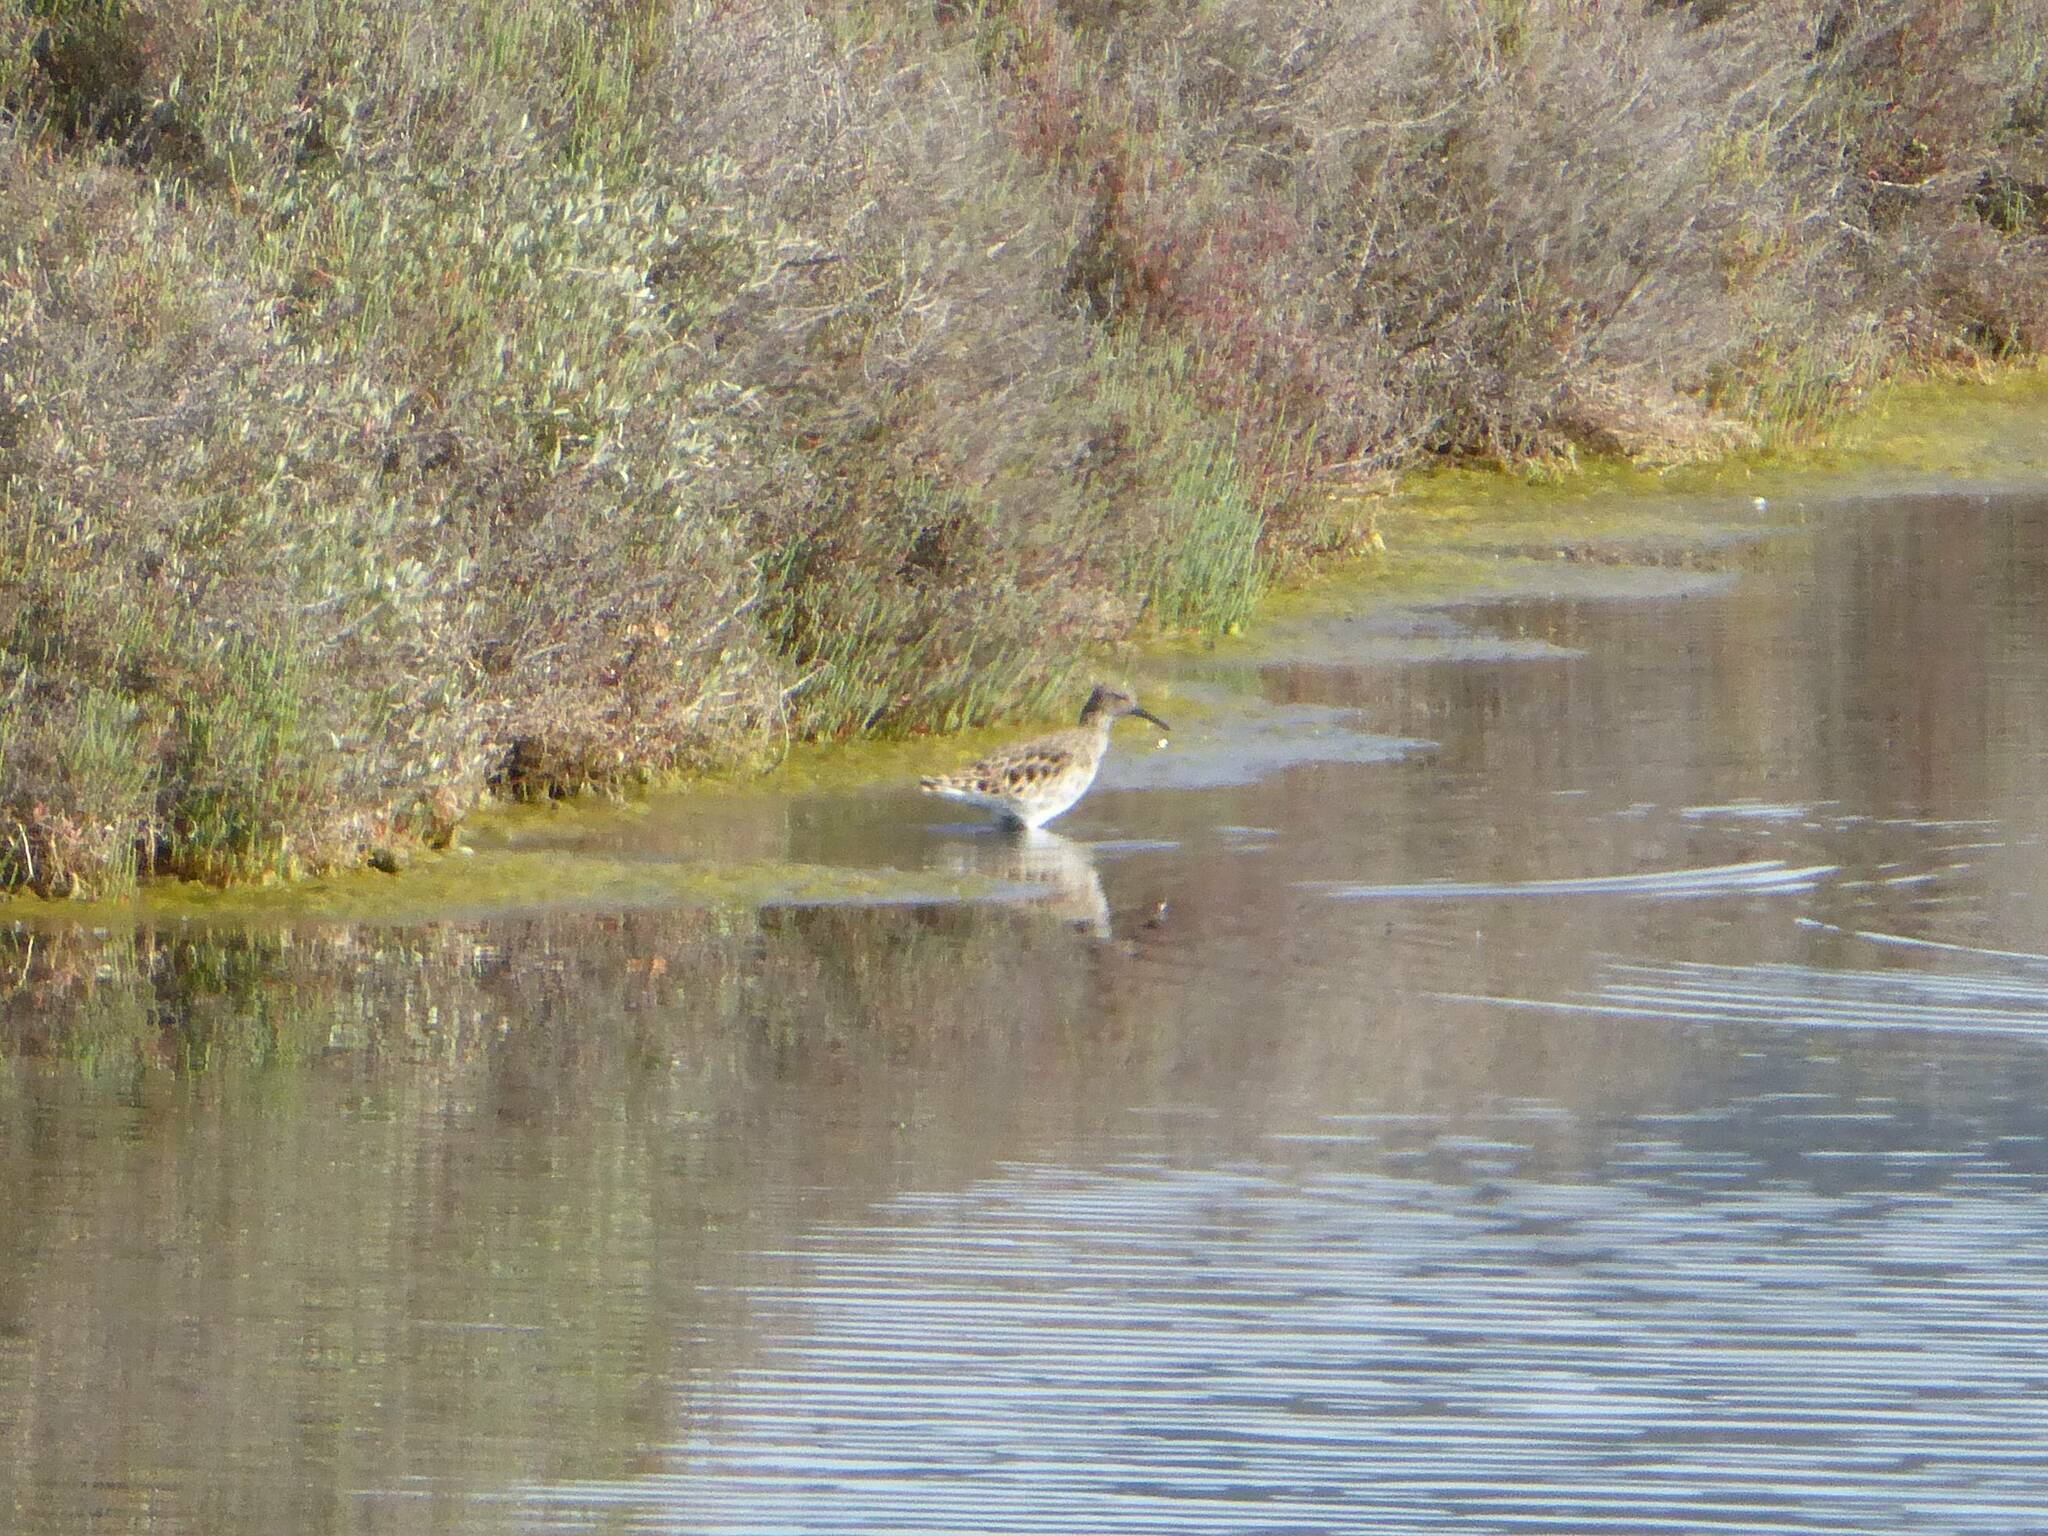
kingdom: Animalia
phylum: Chordata
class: Aves
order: Charadriiformes
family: Scolopacidae
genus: Calidris
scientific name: Calidris pugnax
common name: Ruff
